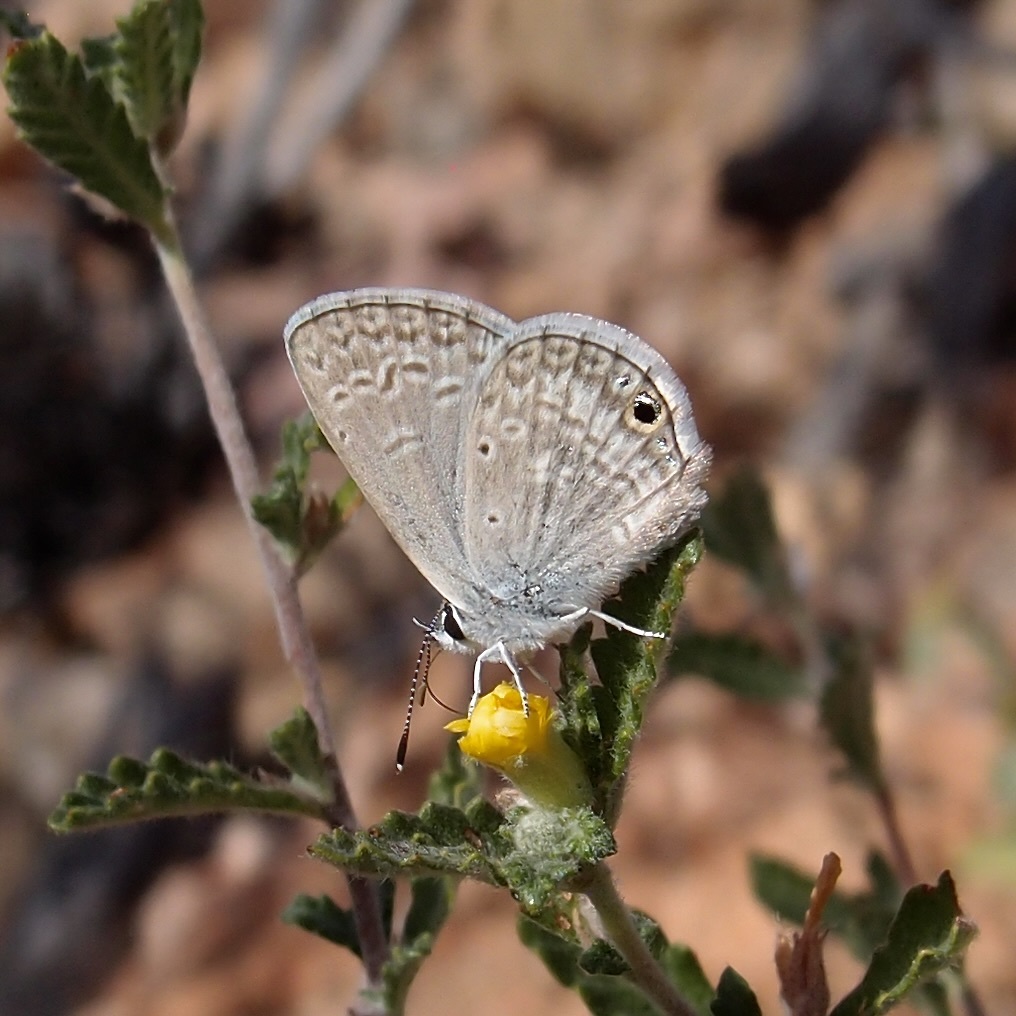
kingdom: Animalia
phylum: Arthropoda
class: Insecta
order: Lepidoptera
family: Lycaenidae
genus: Hemiargus
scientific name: Hemiargus ceraunus
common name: Ceraunus blue
